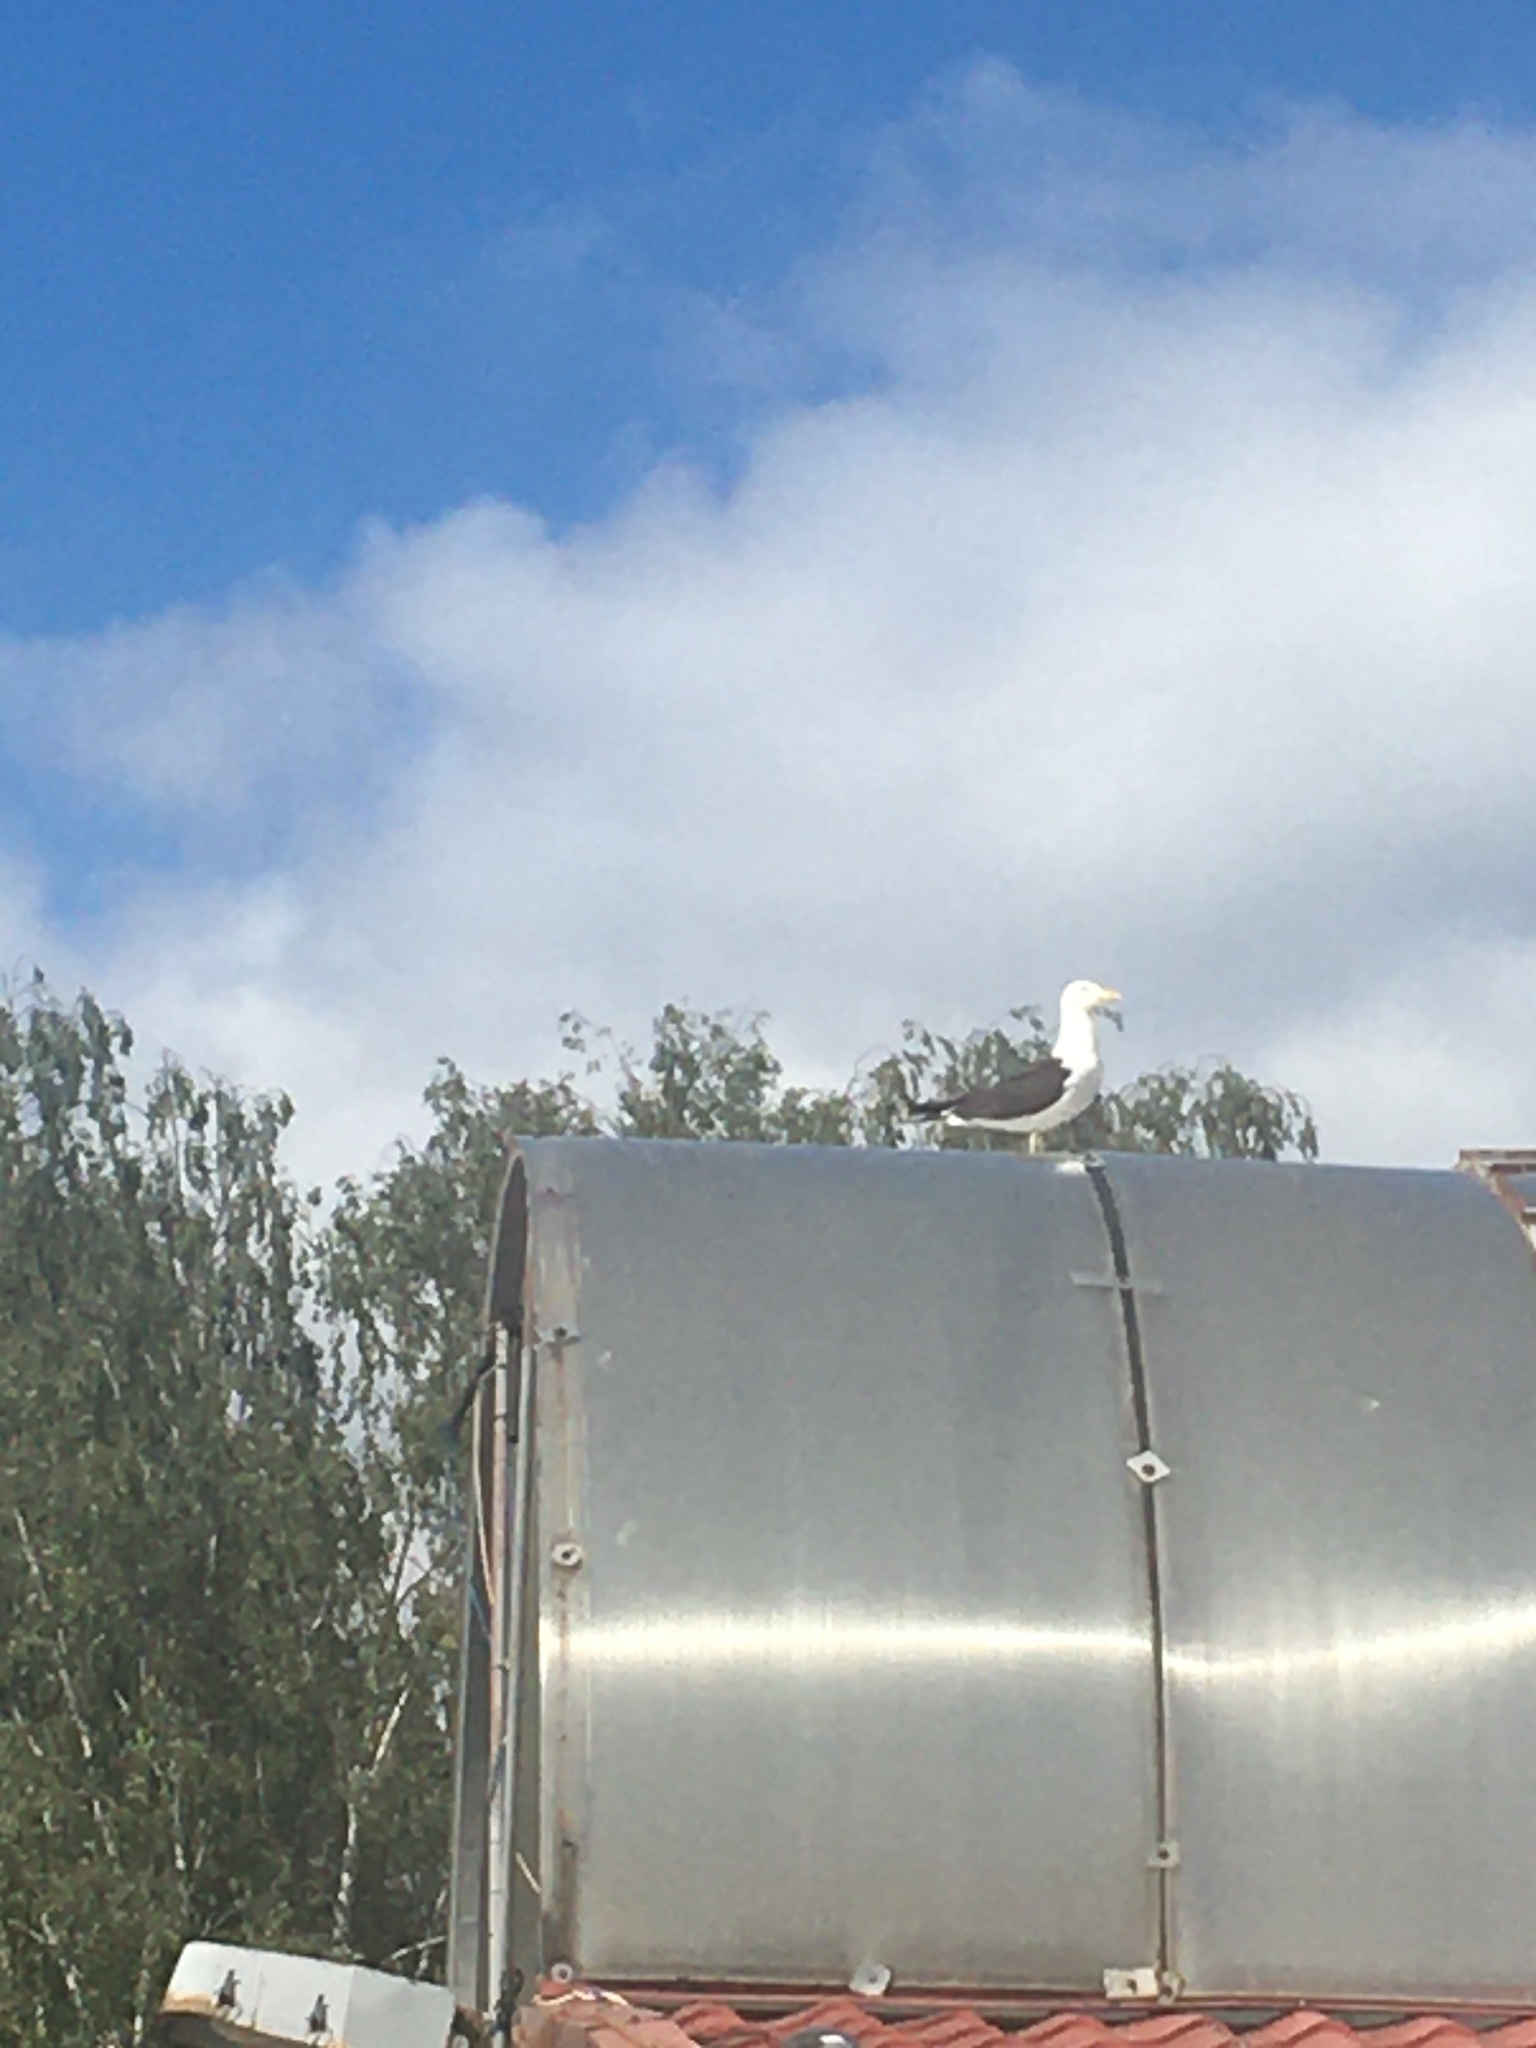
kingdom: Animalia
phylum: Chordata
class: Aves
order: Charadriiformes
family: Laridae
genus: Larus
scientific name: Larus fuscus
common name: Lesser black-backed gull
